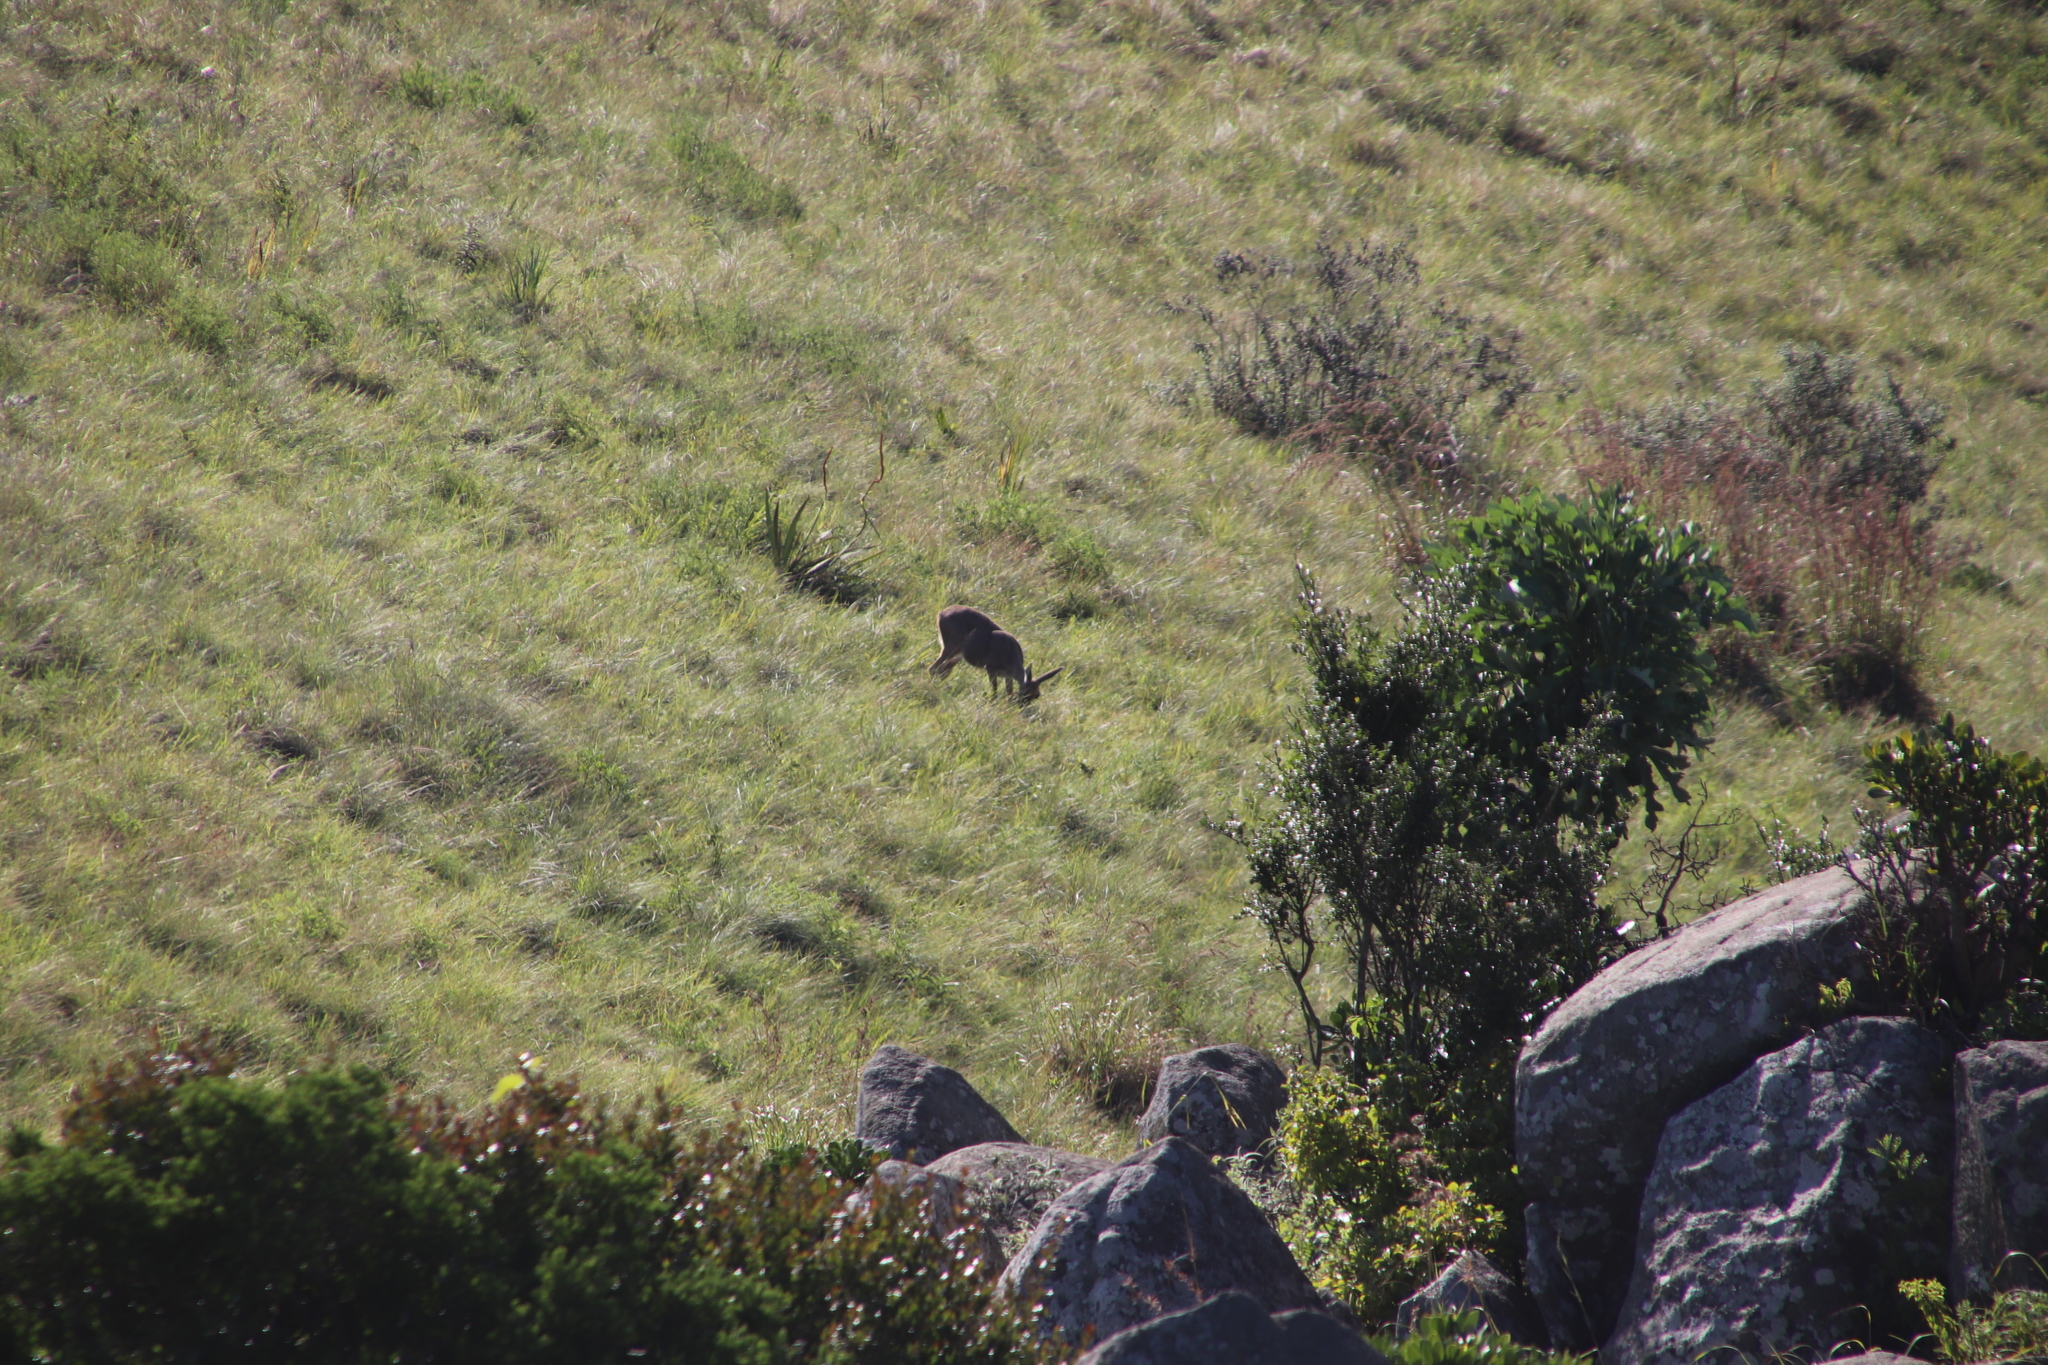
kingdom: Animalia
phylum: Chordata
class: Mammalia
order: Artiodactyla
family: Bovidae
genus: Pelea
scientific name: Pelea capreolus
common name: Common rhebok
